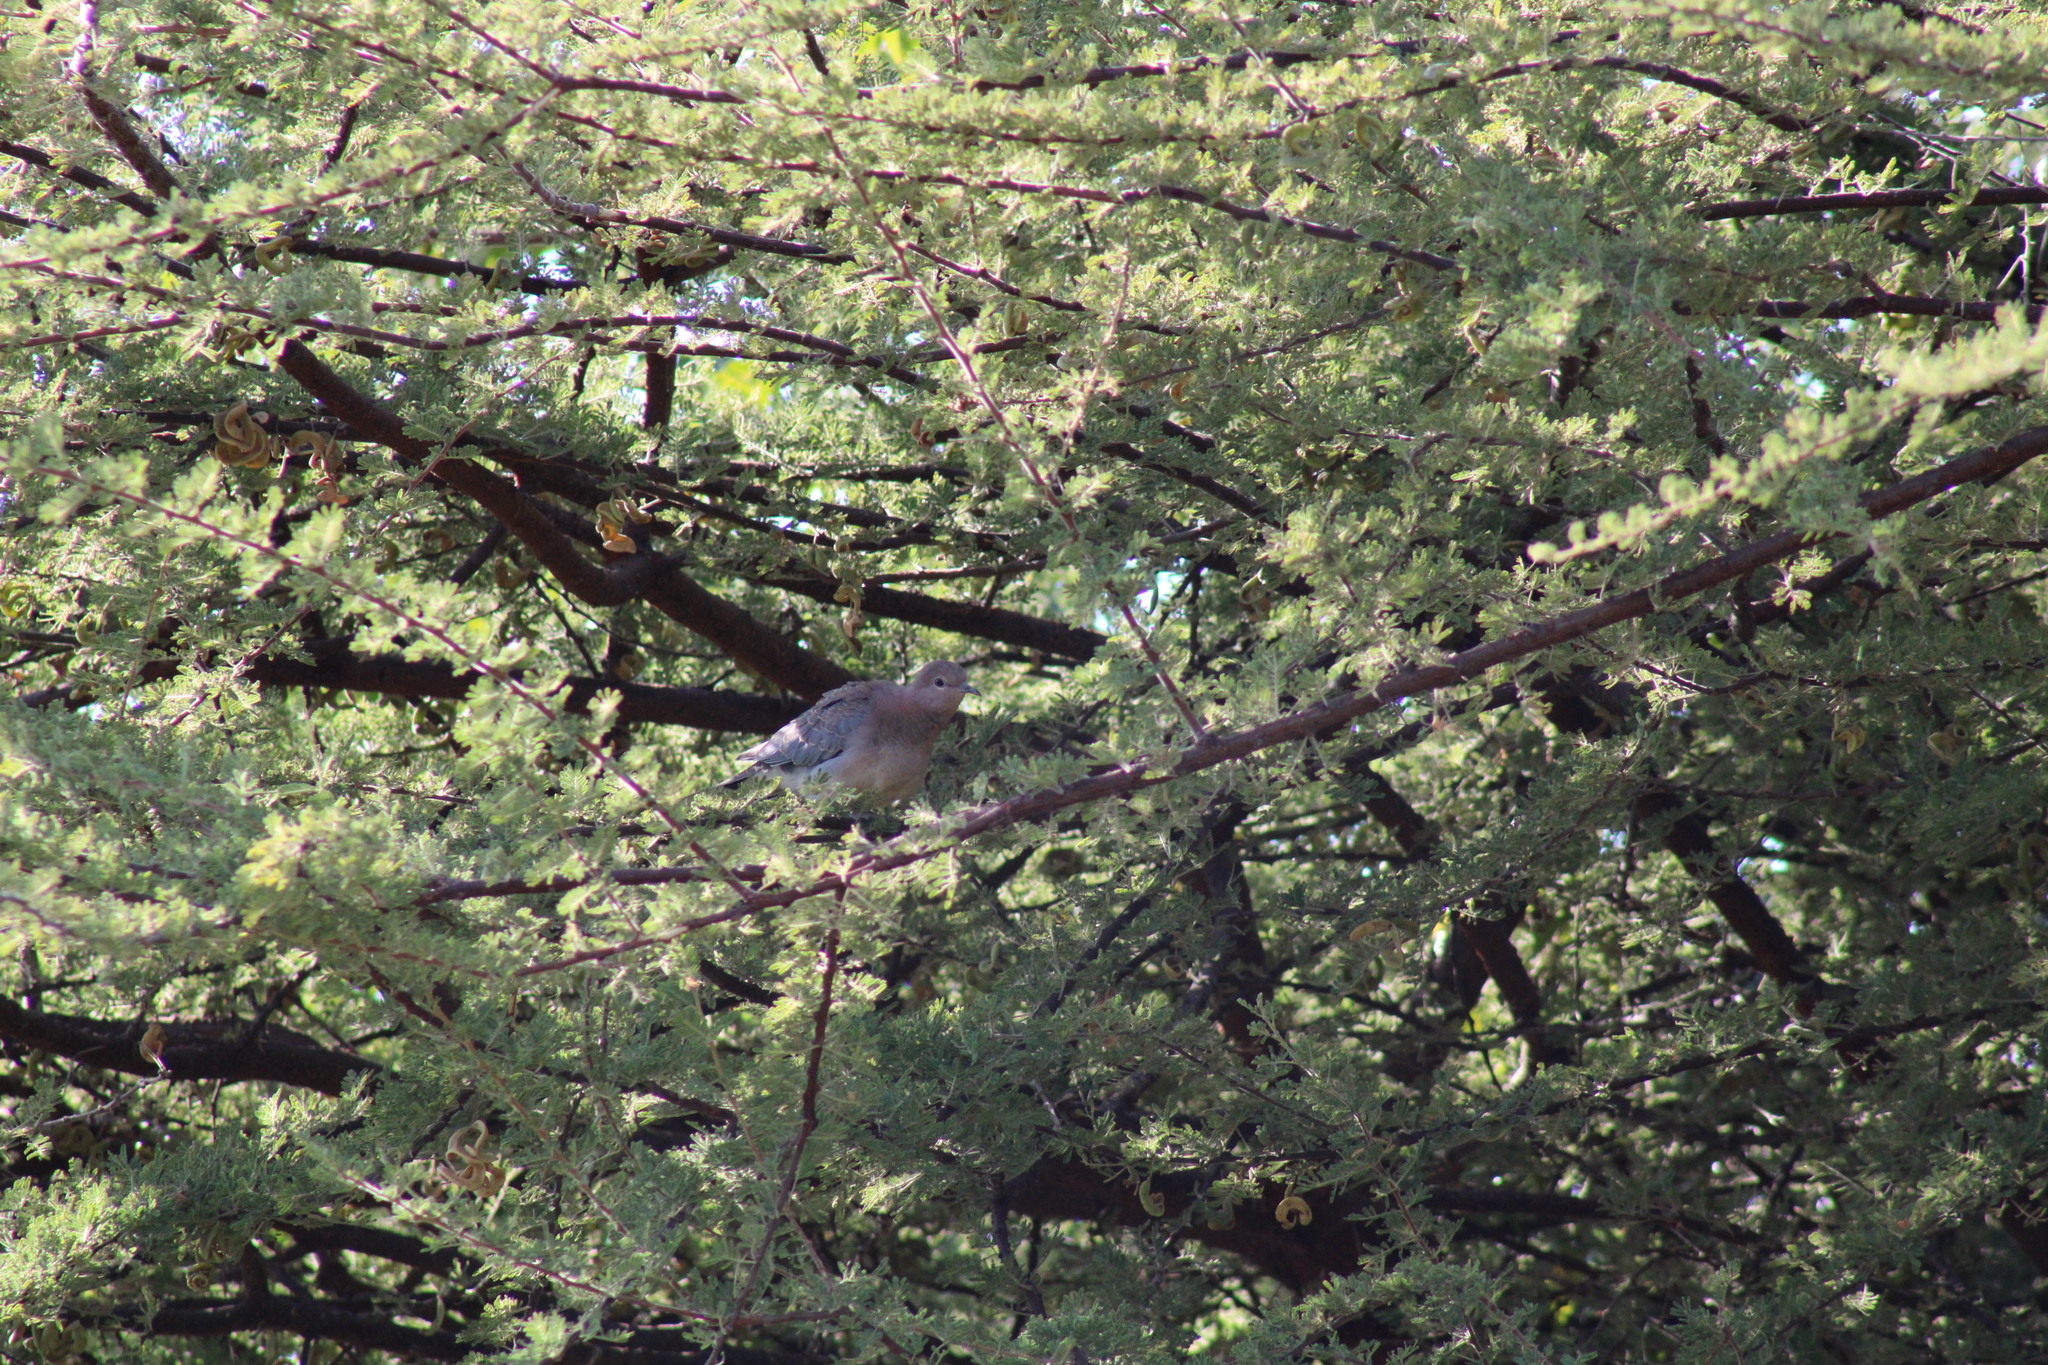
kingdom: Animalia
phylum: Chordata
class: Aves
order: Columbiformes
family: Columbidae
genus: Spilopelia
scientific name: Spilopelia senegalensis
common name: Laughing dove
